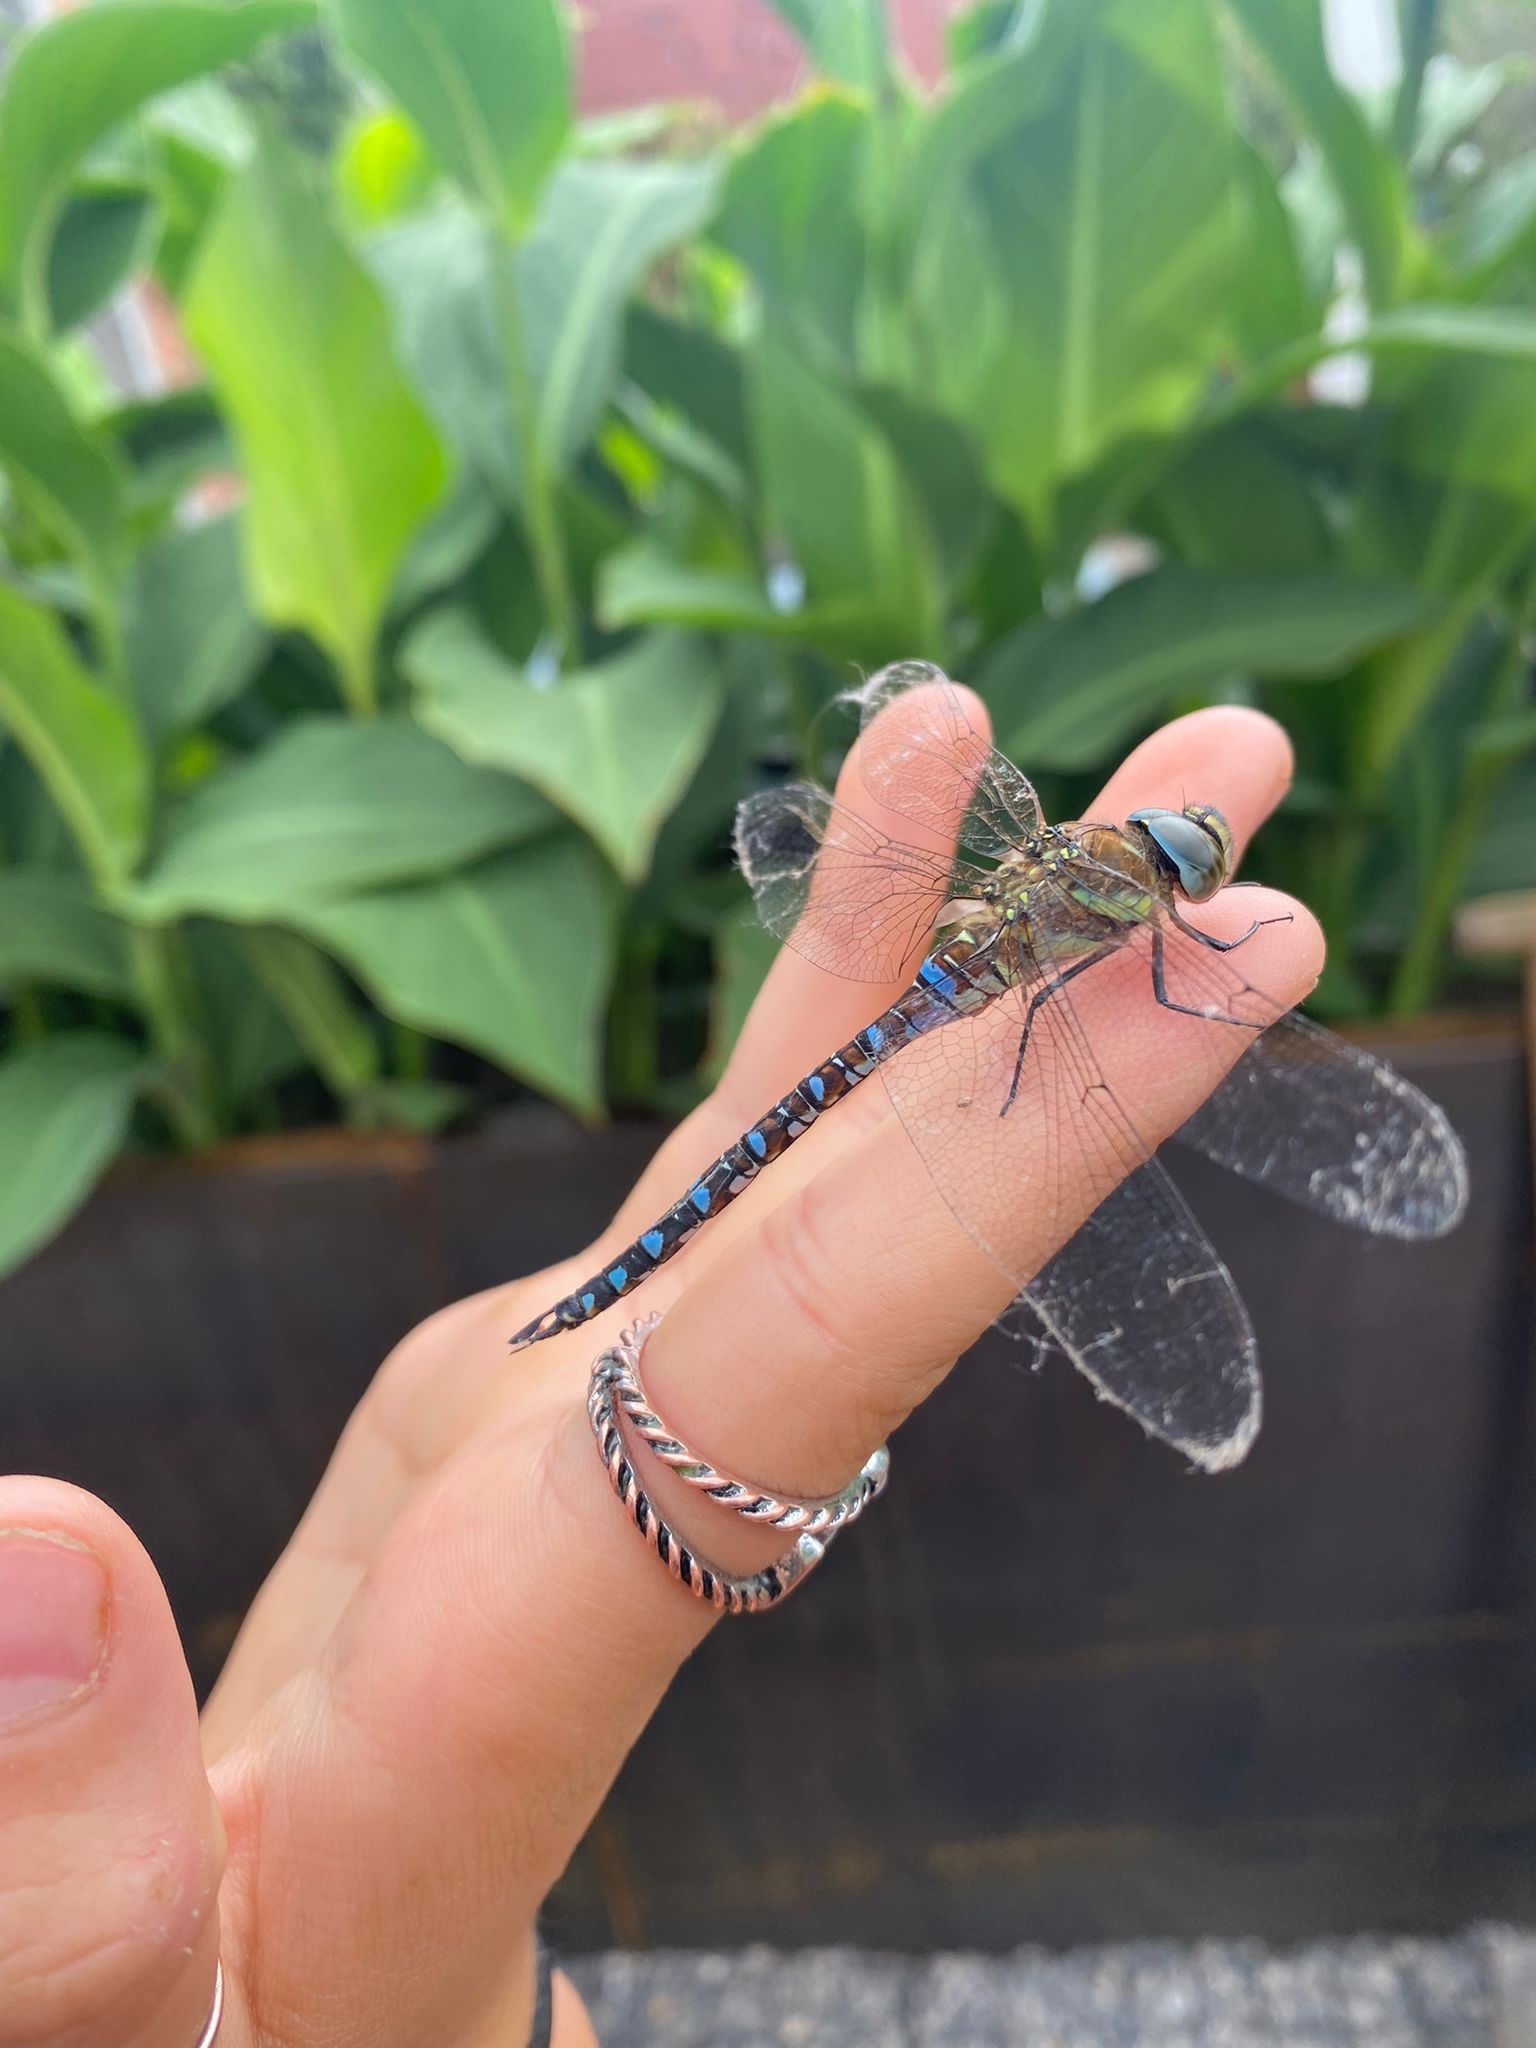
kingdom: Animalia
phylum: Arthropoda
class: Insecta
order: Odonata
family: Aeshnidae
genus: Aeshna
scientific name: Aeshna mixta
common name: Migrant hawker
